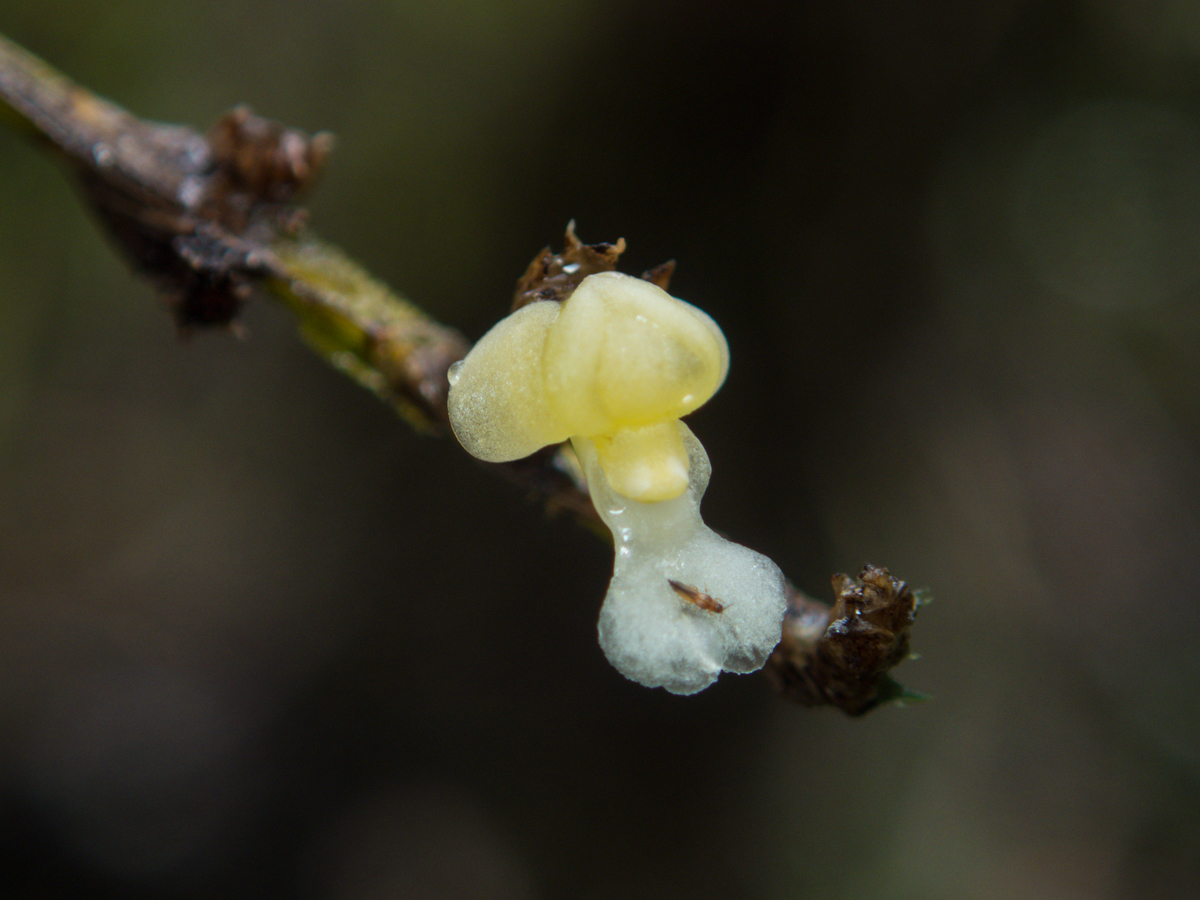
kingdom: Plantae
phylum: Tracheophyta
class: Liliopsida
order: Asparagales
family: Orchidaceae
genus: Dendrobium
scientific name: Dendrobium aloifolium
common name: Aloe-like dendrobium
